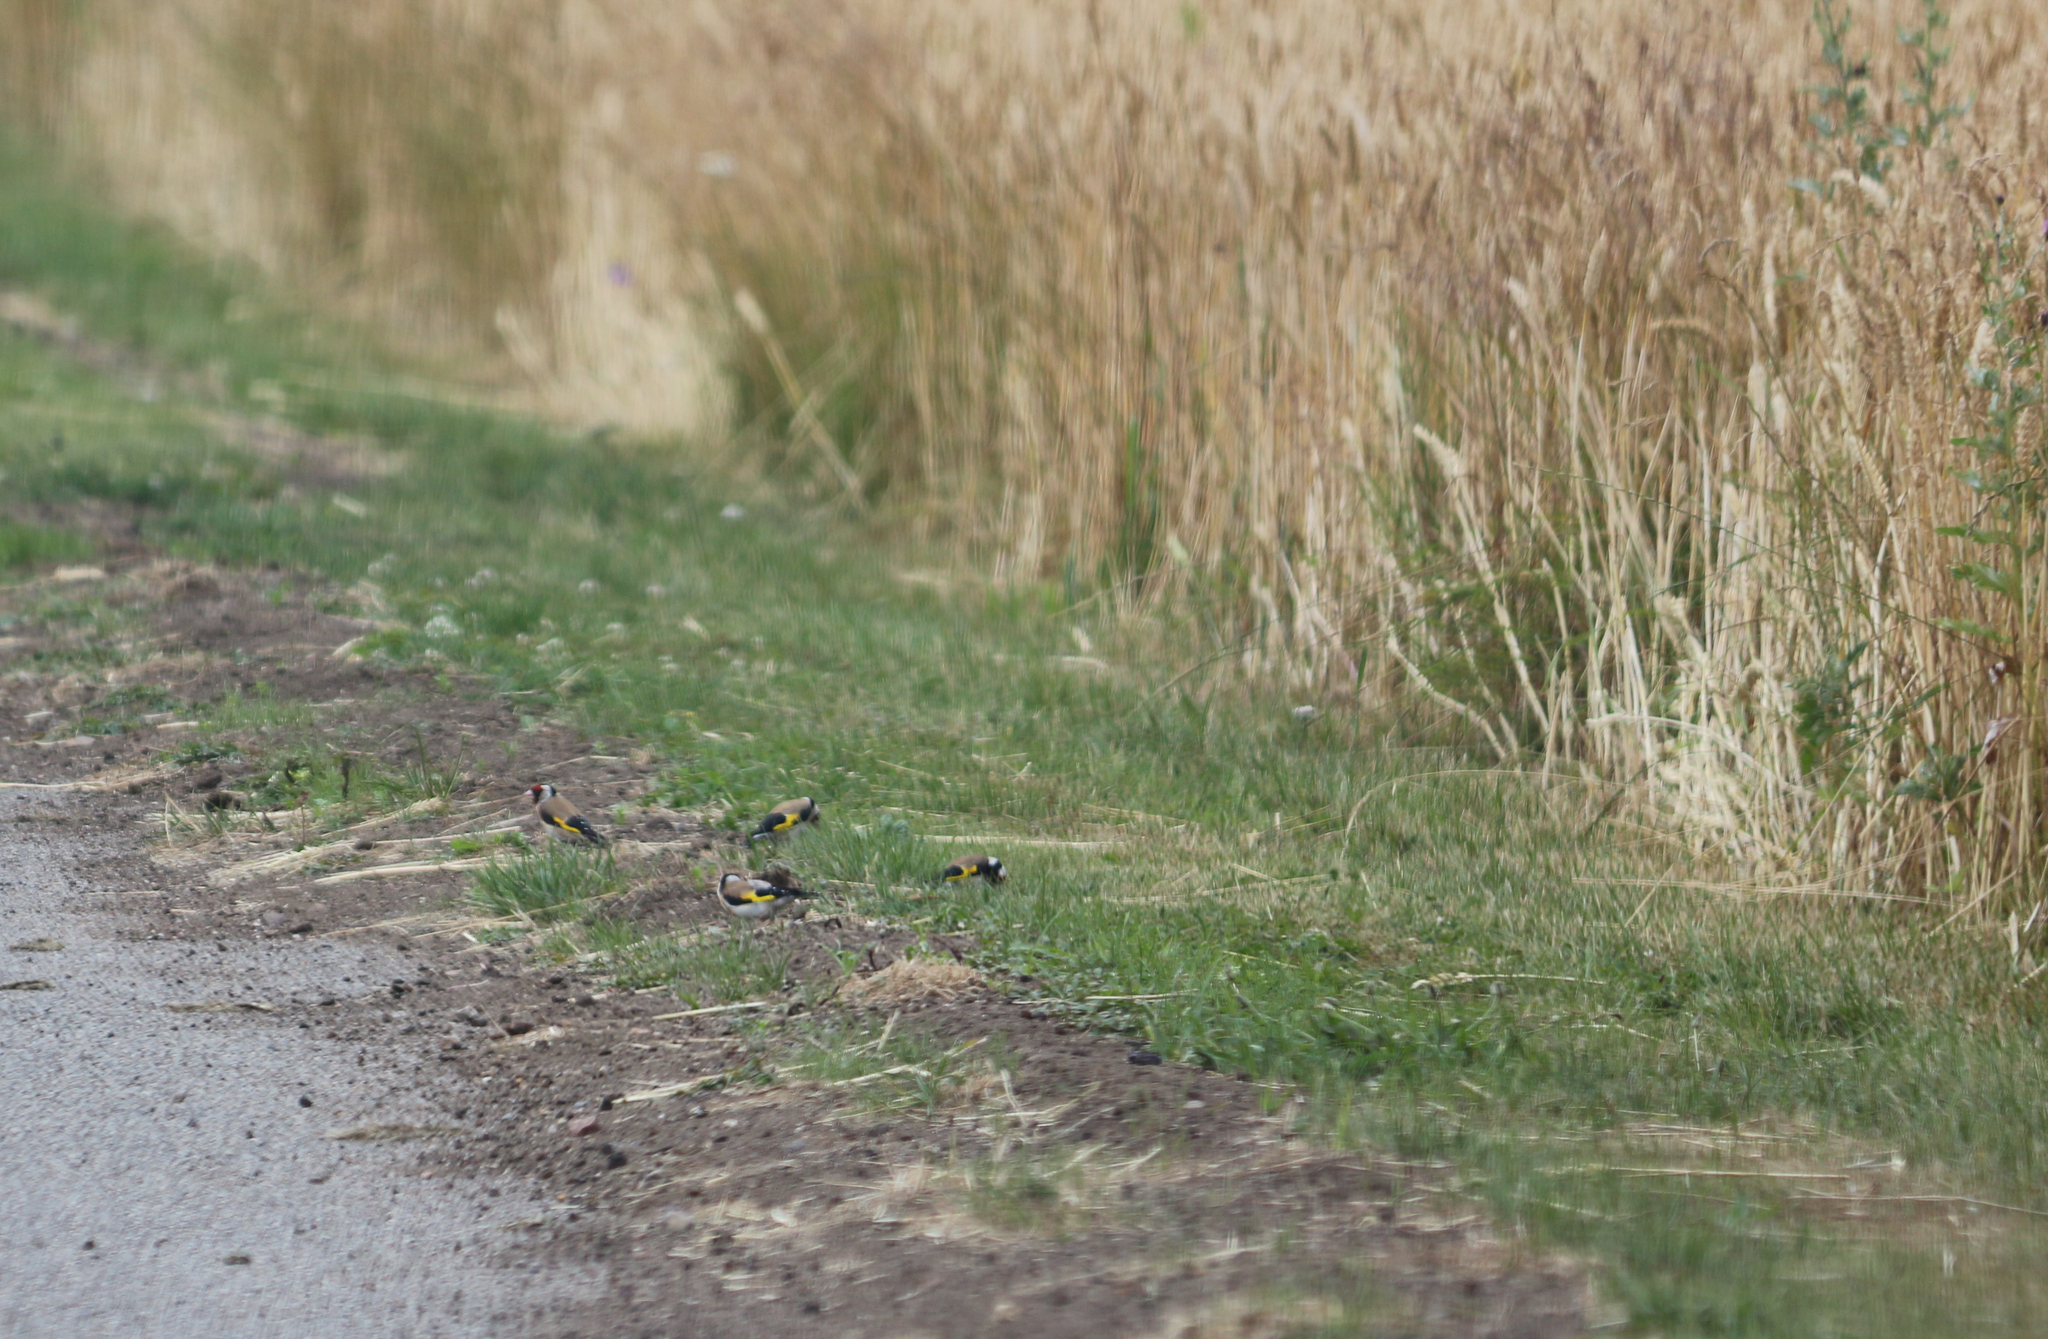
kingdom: Animalia
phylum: Chordata
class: Aves
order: Passeriformes
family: Fringillidae
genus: Carduelis
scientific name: Carduelis carduelis
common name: European goldfinch
